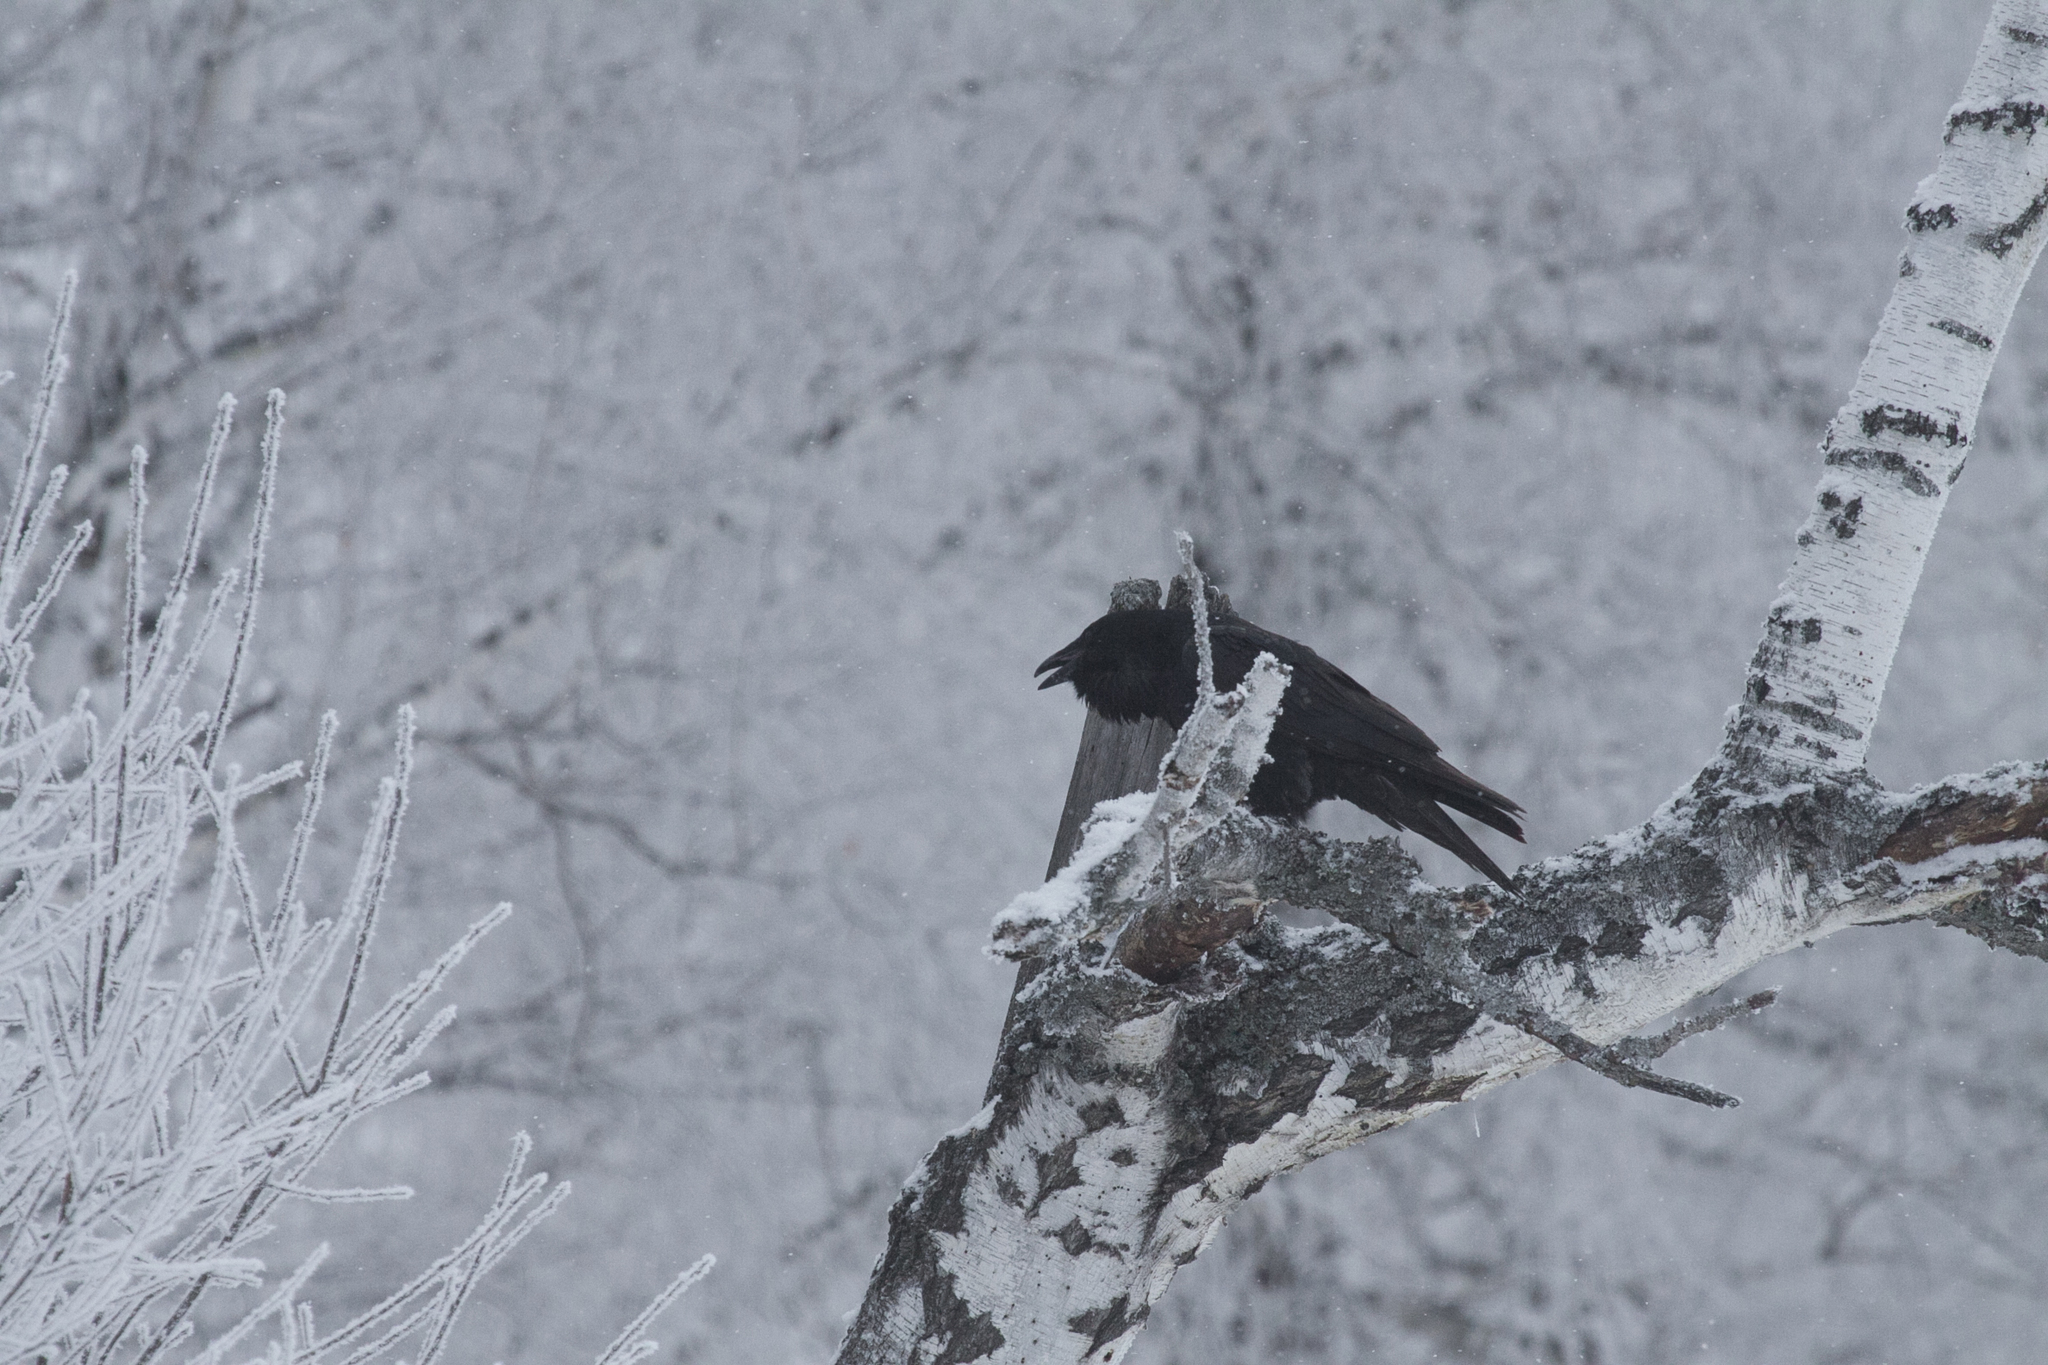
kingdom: Animalia
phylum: Chordata
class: Aves
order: Passeriformes
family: Corvidae
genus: Corvus
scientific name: Corvus corax
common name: Common raven
